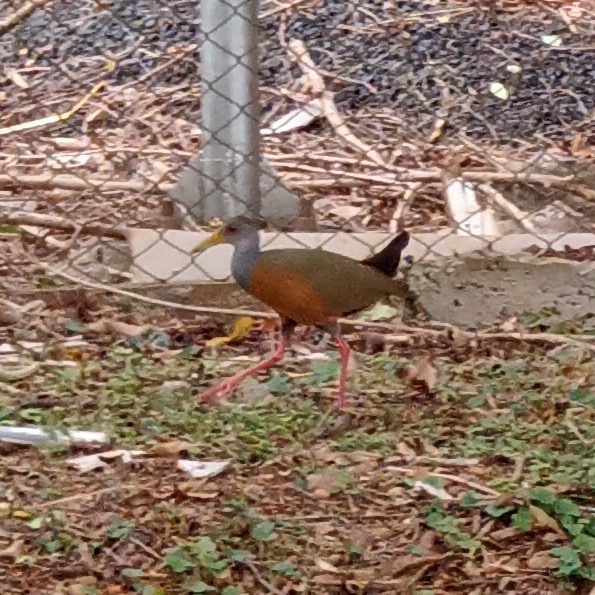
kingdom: Animalia
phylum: Chordata
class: Aves
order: Gruiformes
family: Rallidae
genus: Aramides
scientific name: Aramides cajanea
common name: Gray-necked wood-rail
